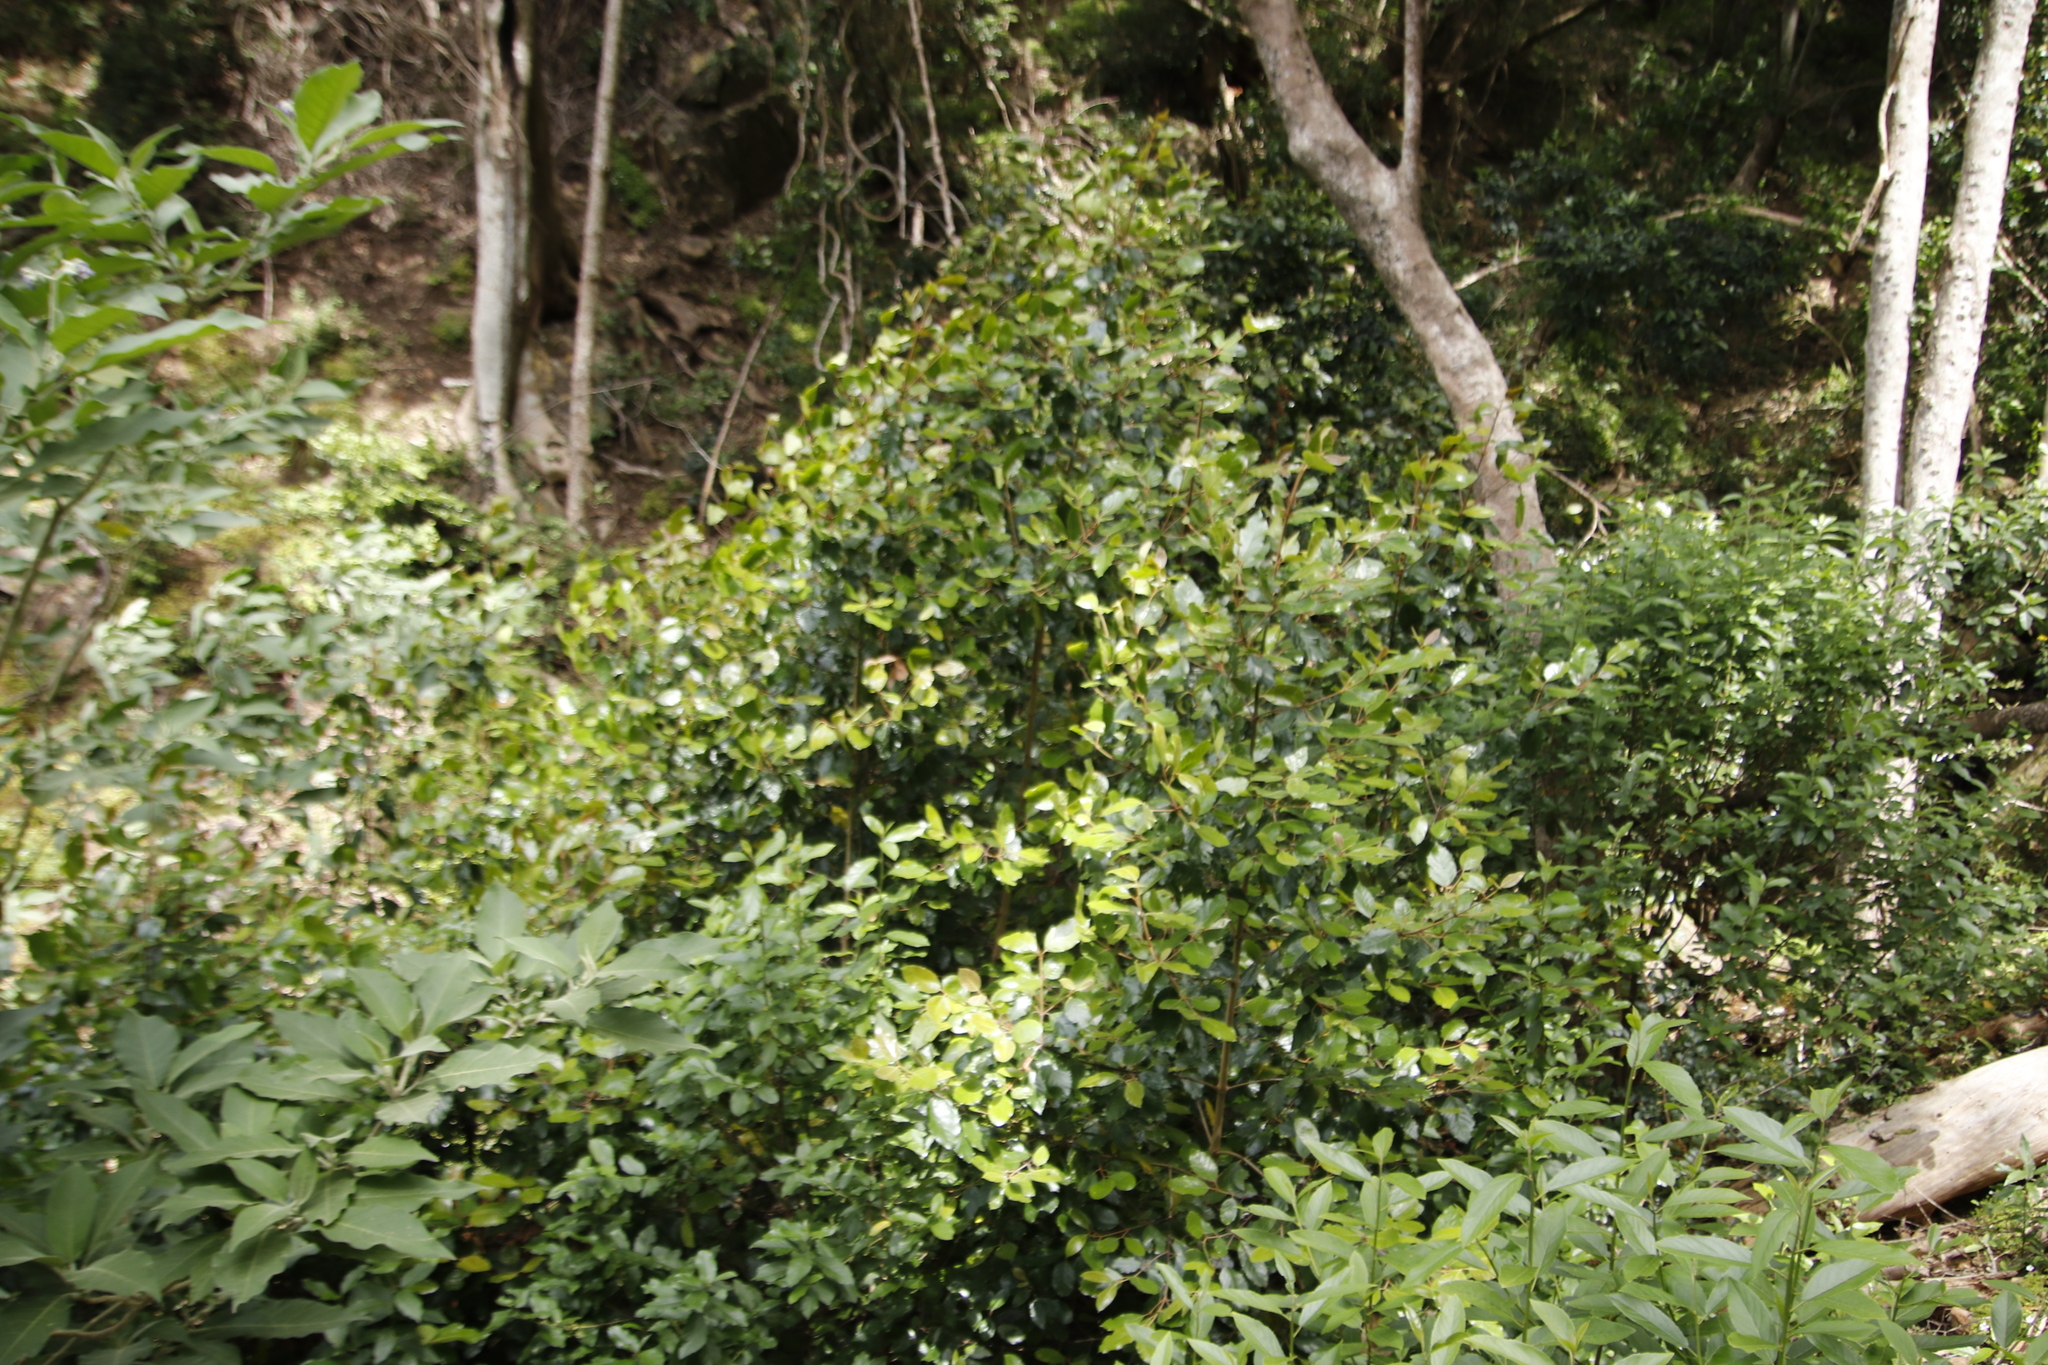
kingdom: Plantae
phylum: Tracheophyta
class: Magnoliopsida
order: Cornales
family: Curtisiaceae
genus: Curtisia
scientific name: Curtisia dentata
